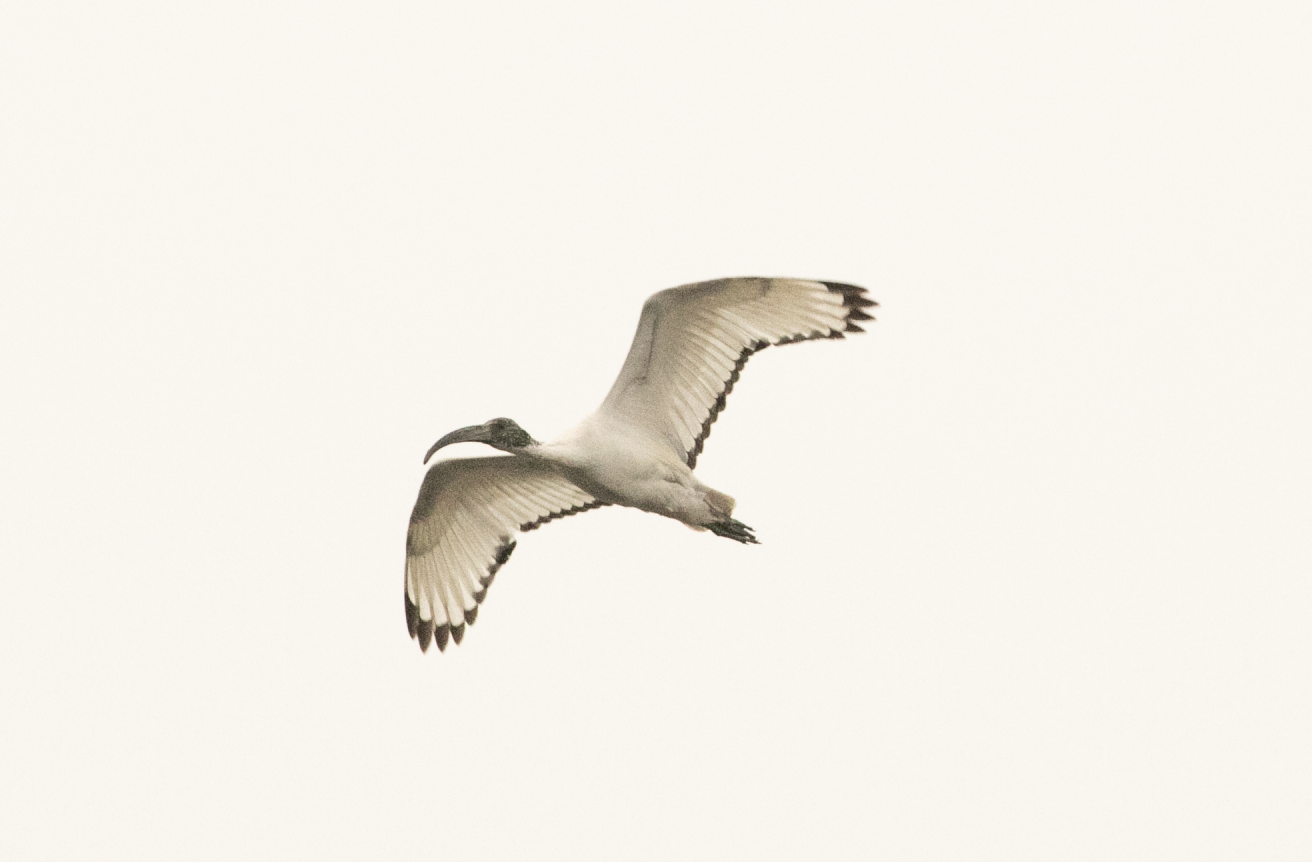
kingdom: Animalia
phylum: Chordata
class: Aves
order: Pelecaniformes
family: Threskiornithidae
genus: Threskiornis
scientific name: Threskiornis aethiopicus
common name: Sacred ibis
